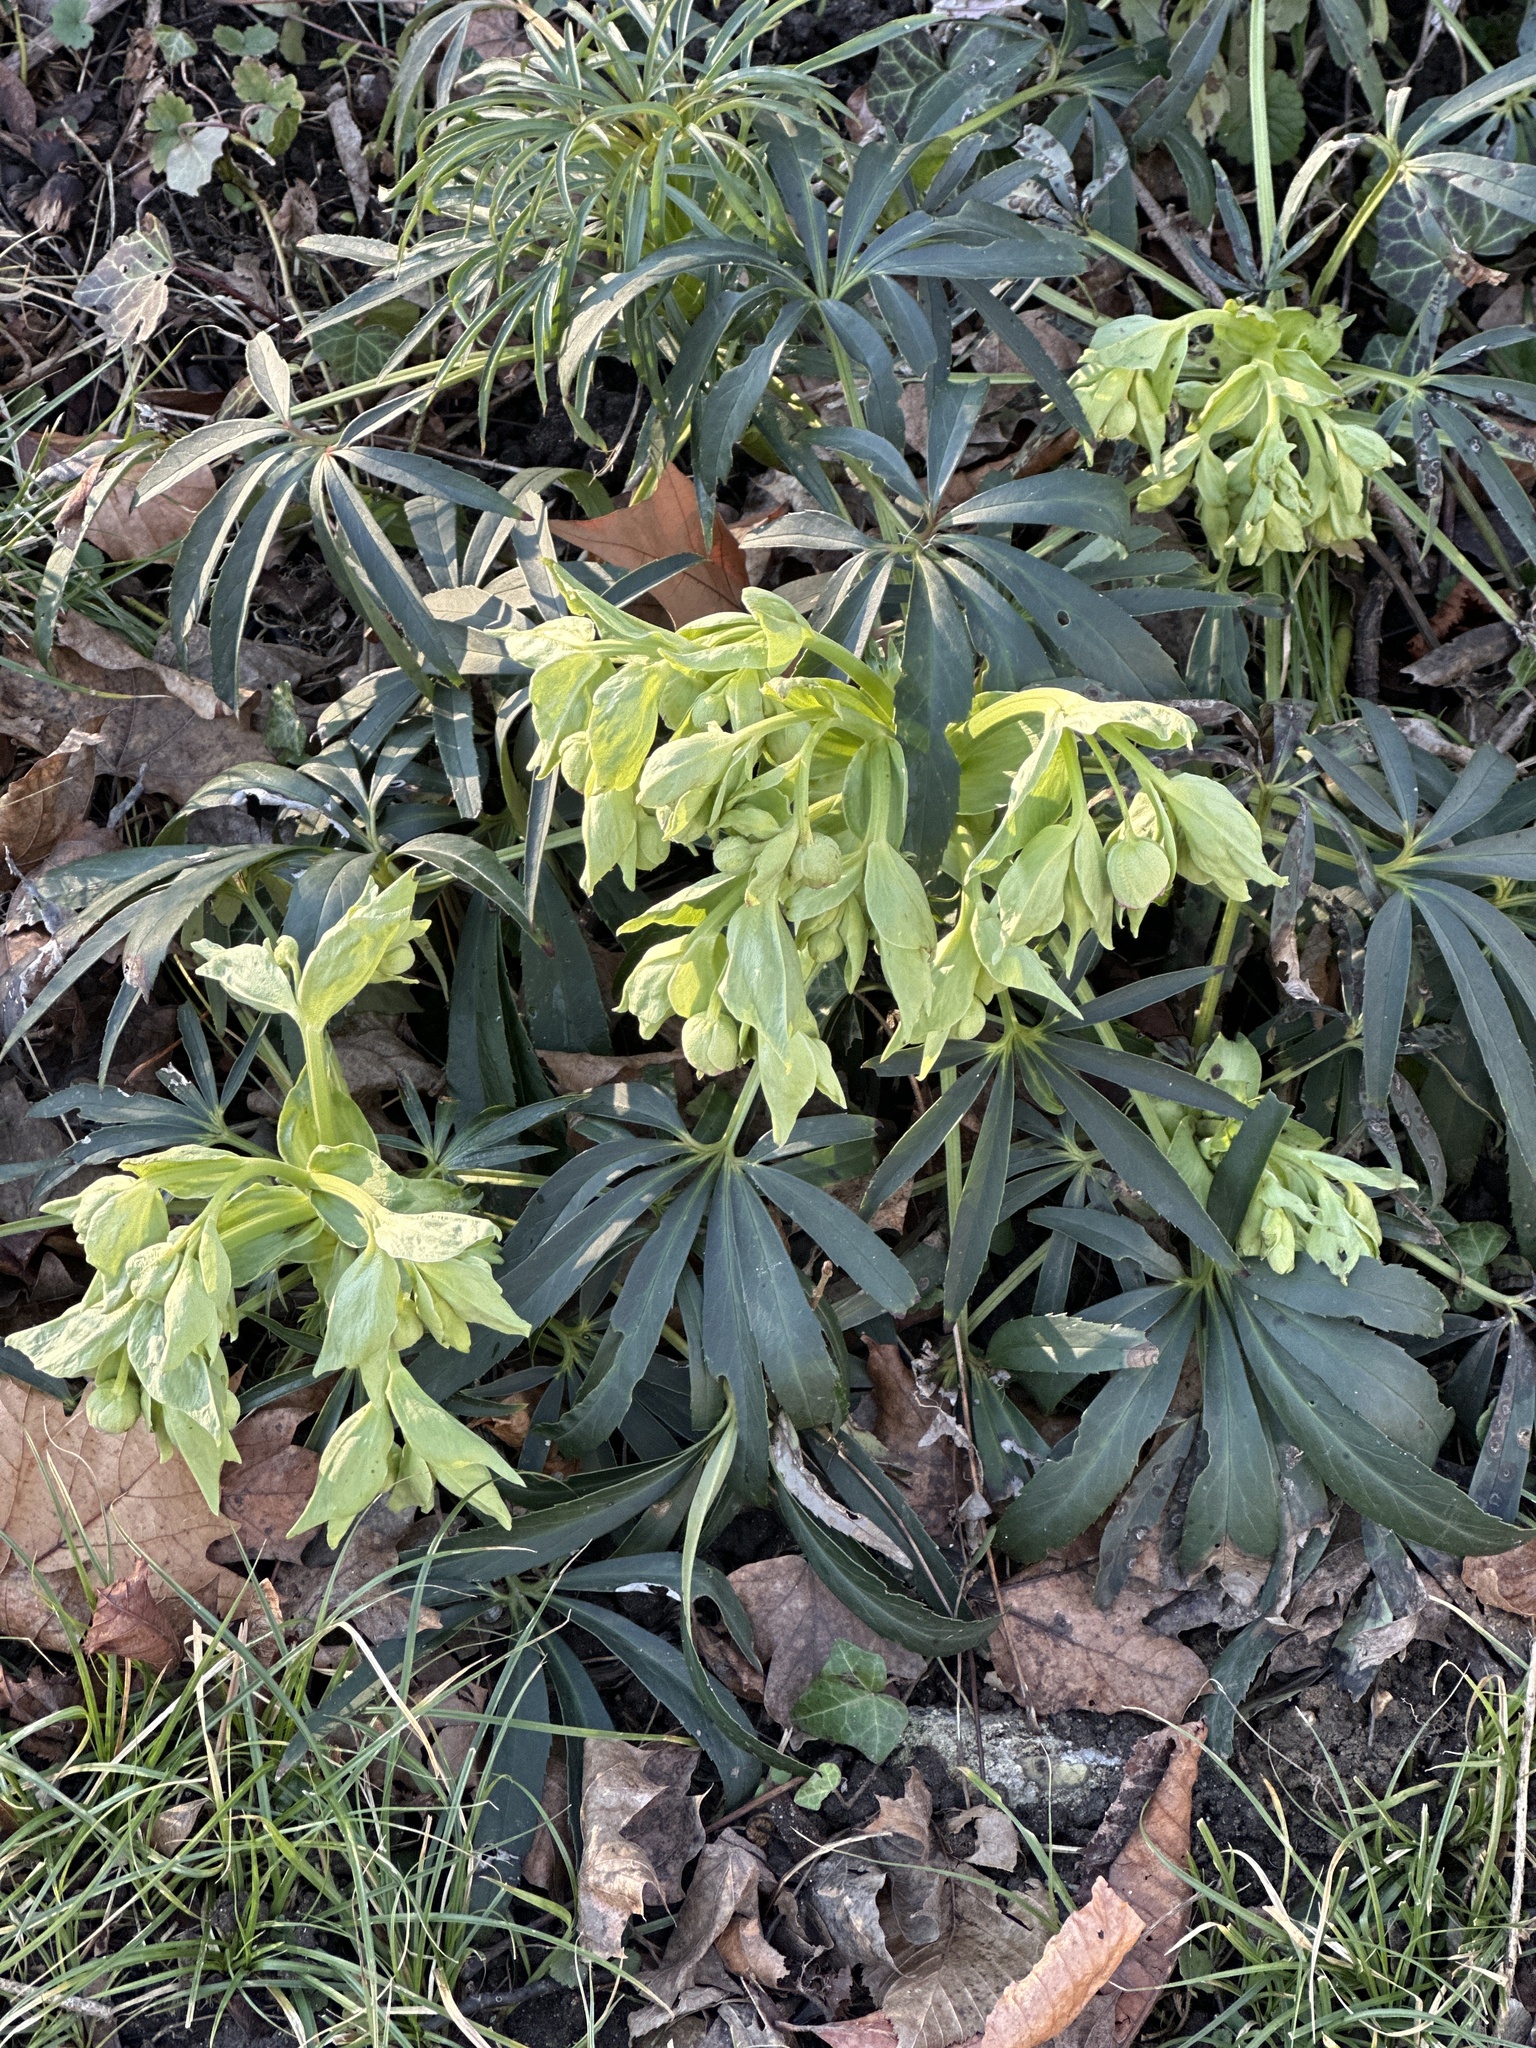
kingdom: Plantae
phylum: Tracheophyta
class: Magnoliopsida
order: Ranunculales
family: Ranunculaceae
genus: Helleborus
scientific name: Helleborus foetidus
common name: Stinking hellebore
